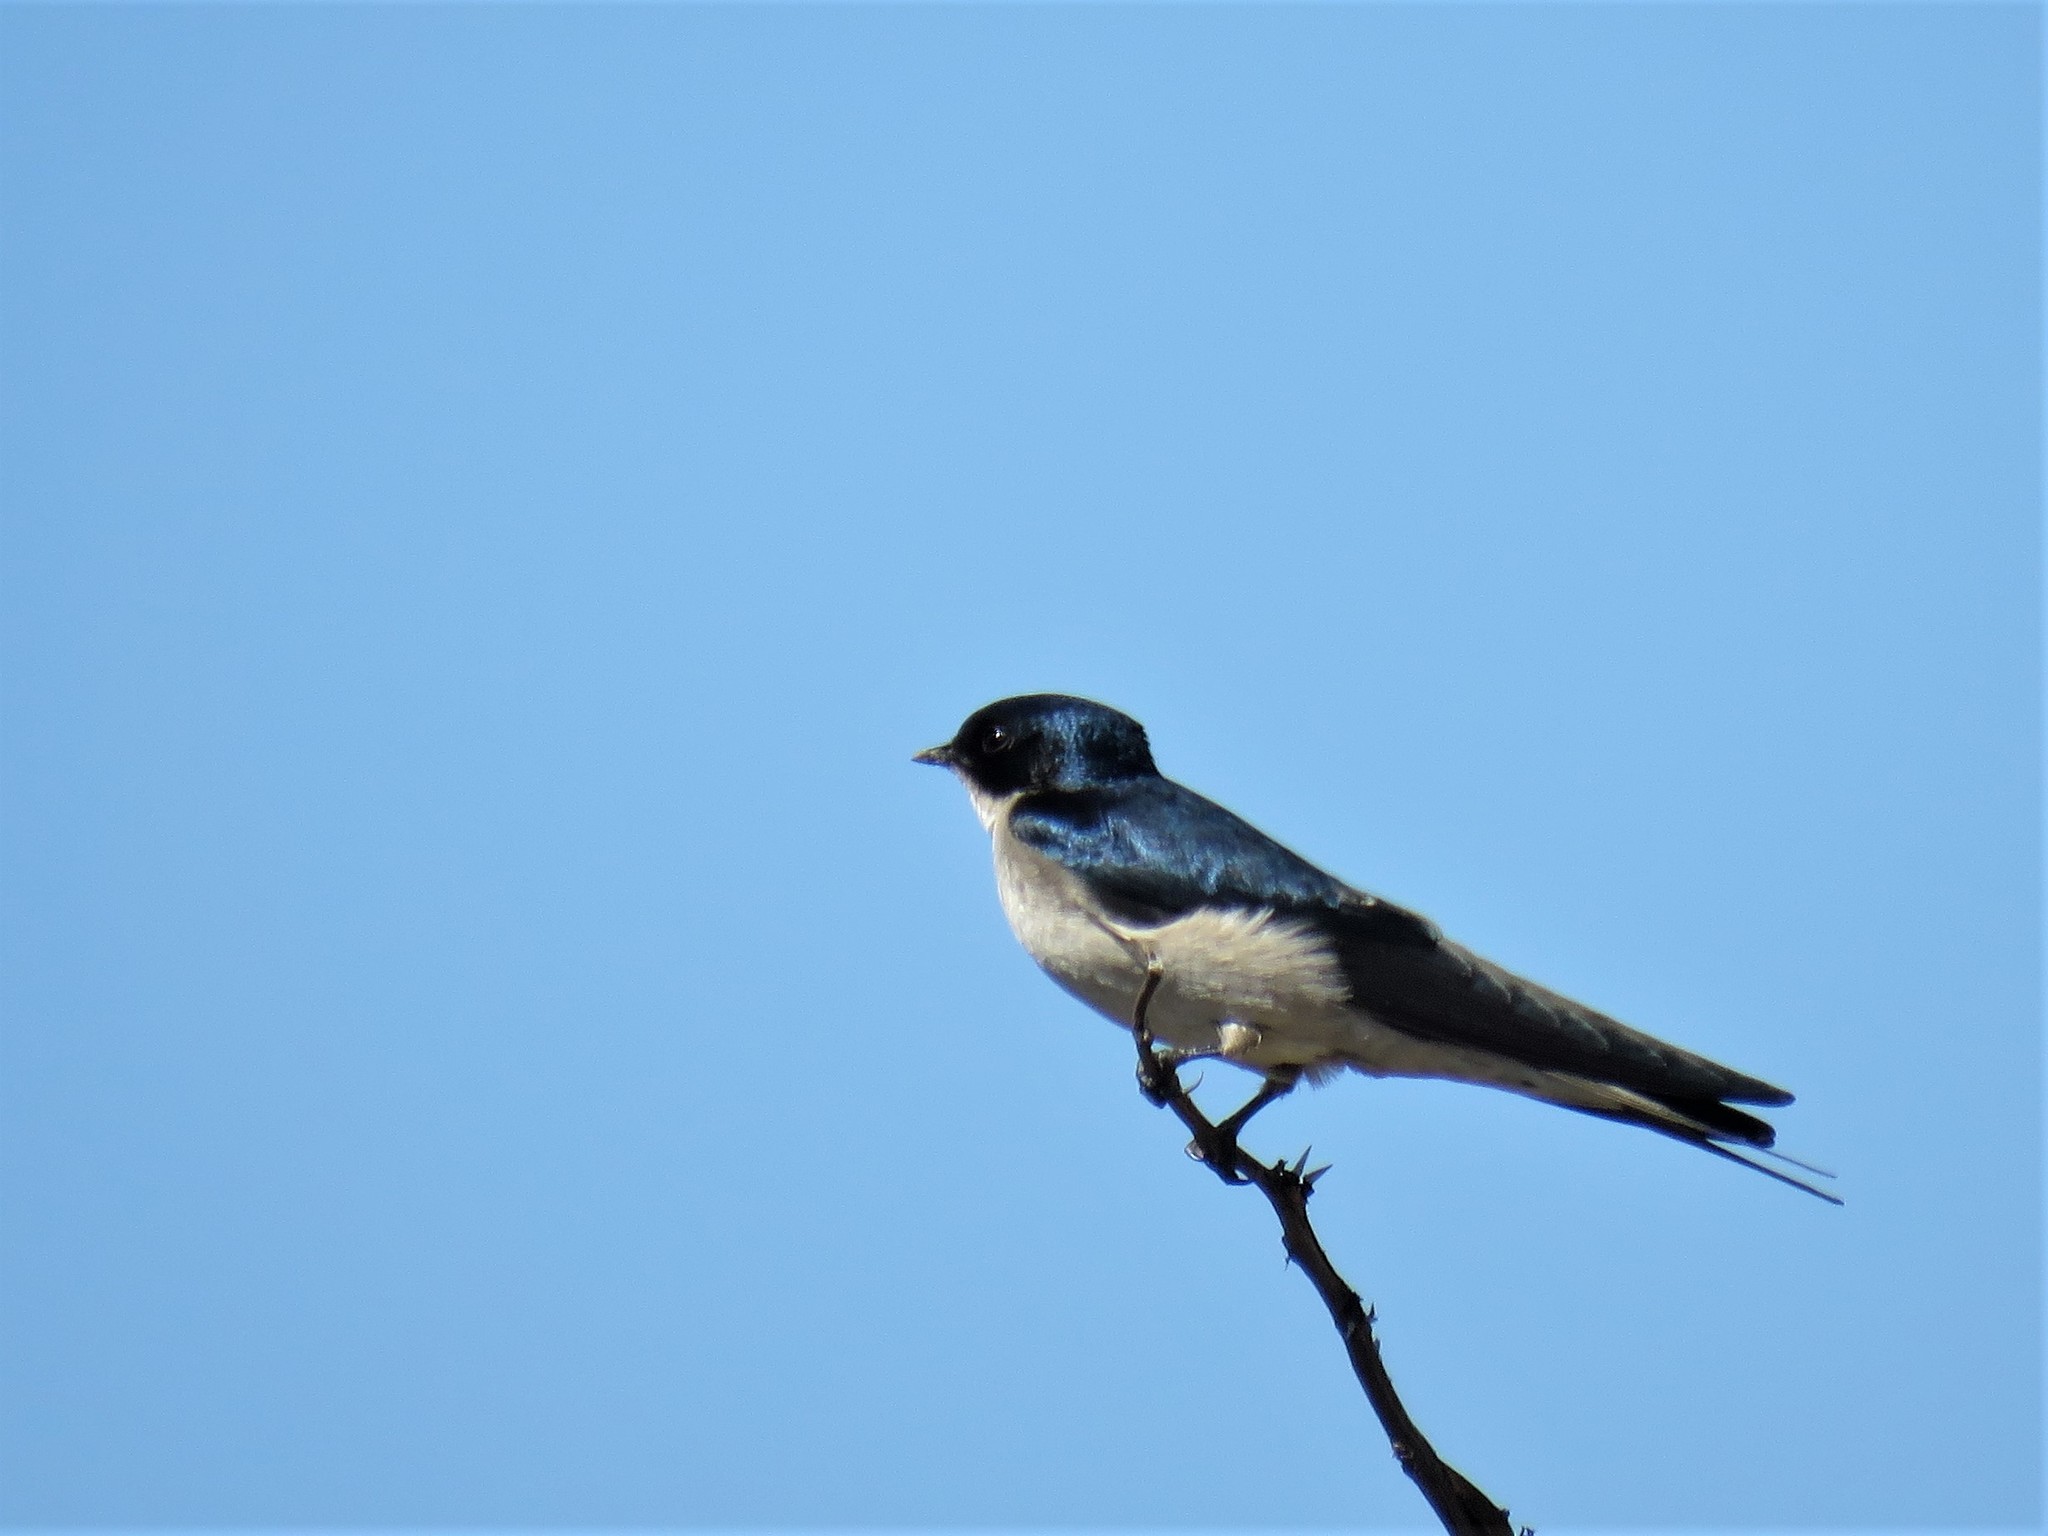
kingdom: Animalia
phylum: Chordata
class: Aves
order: Passeriformes
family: Hirundinidae
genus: Hirundo
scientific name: Hirundo dimidiata
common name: Pearl-breasted swallow
